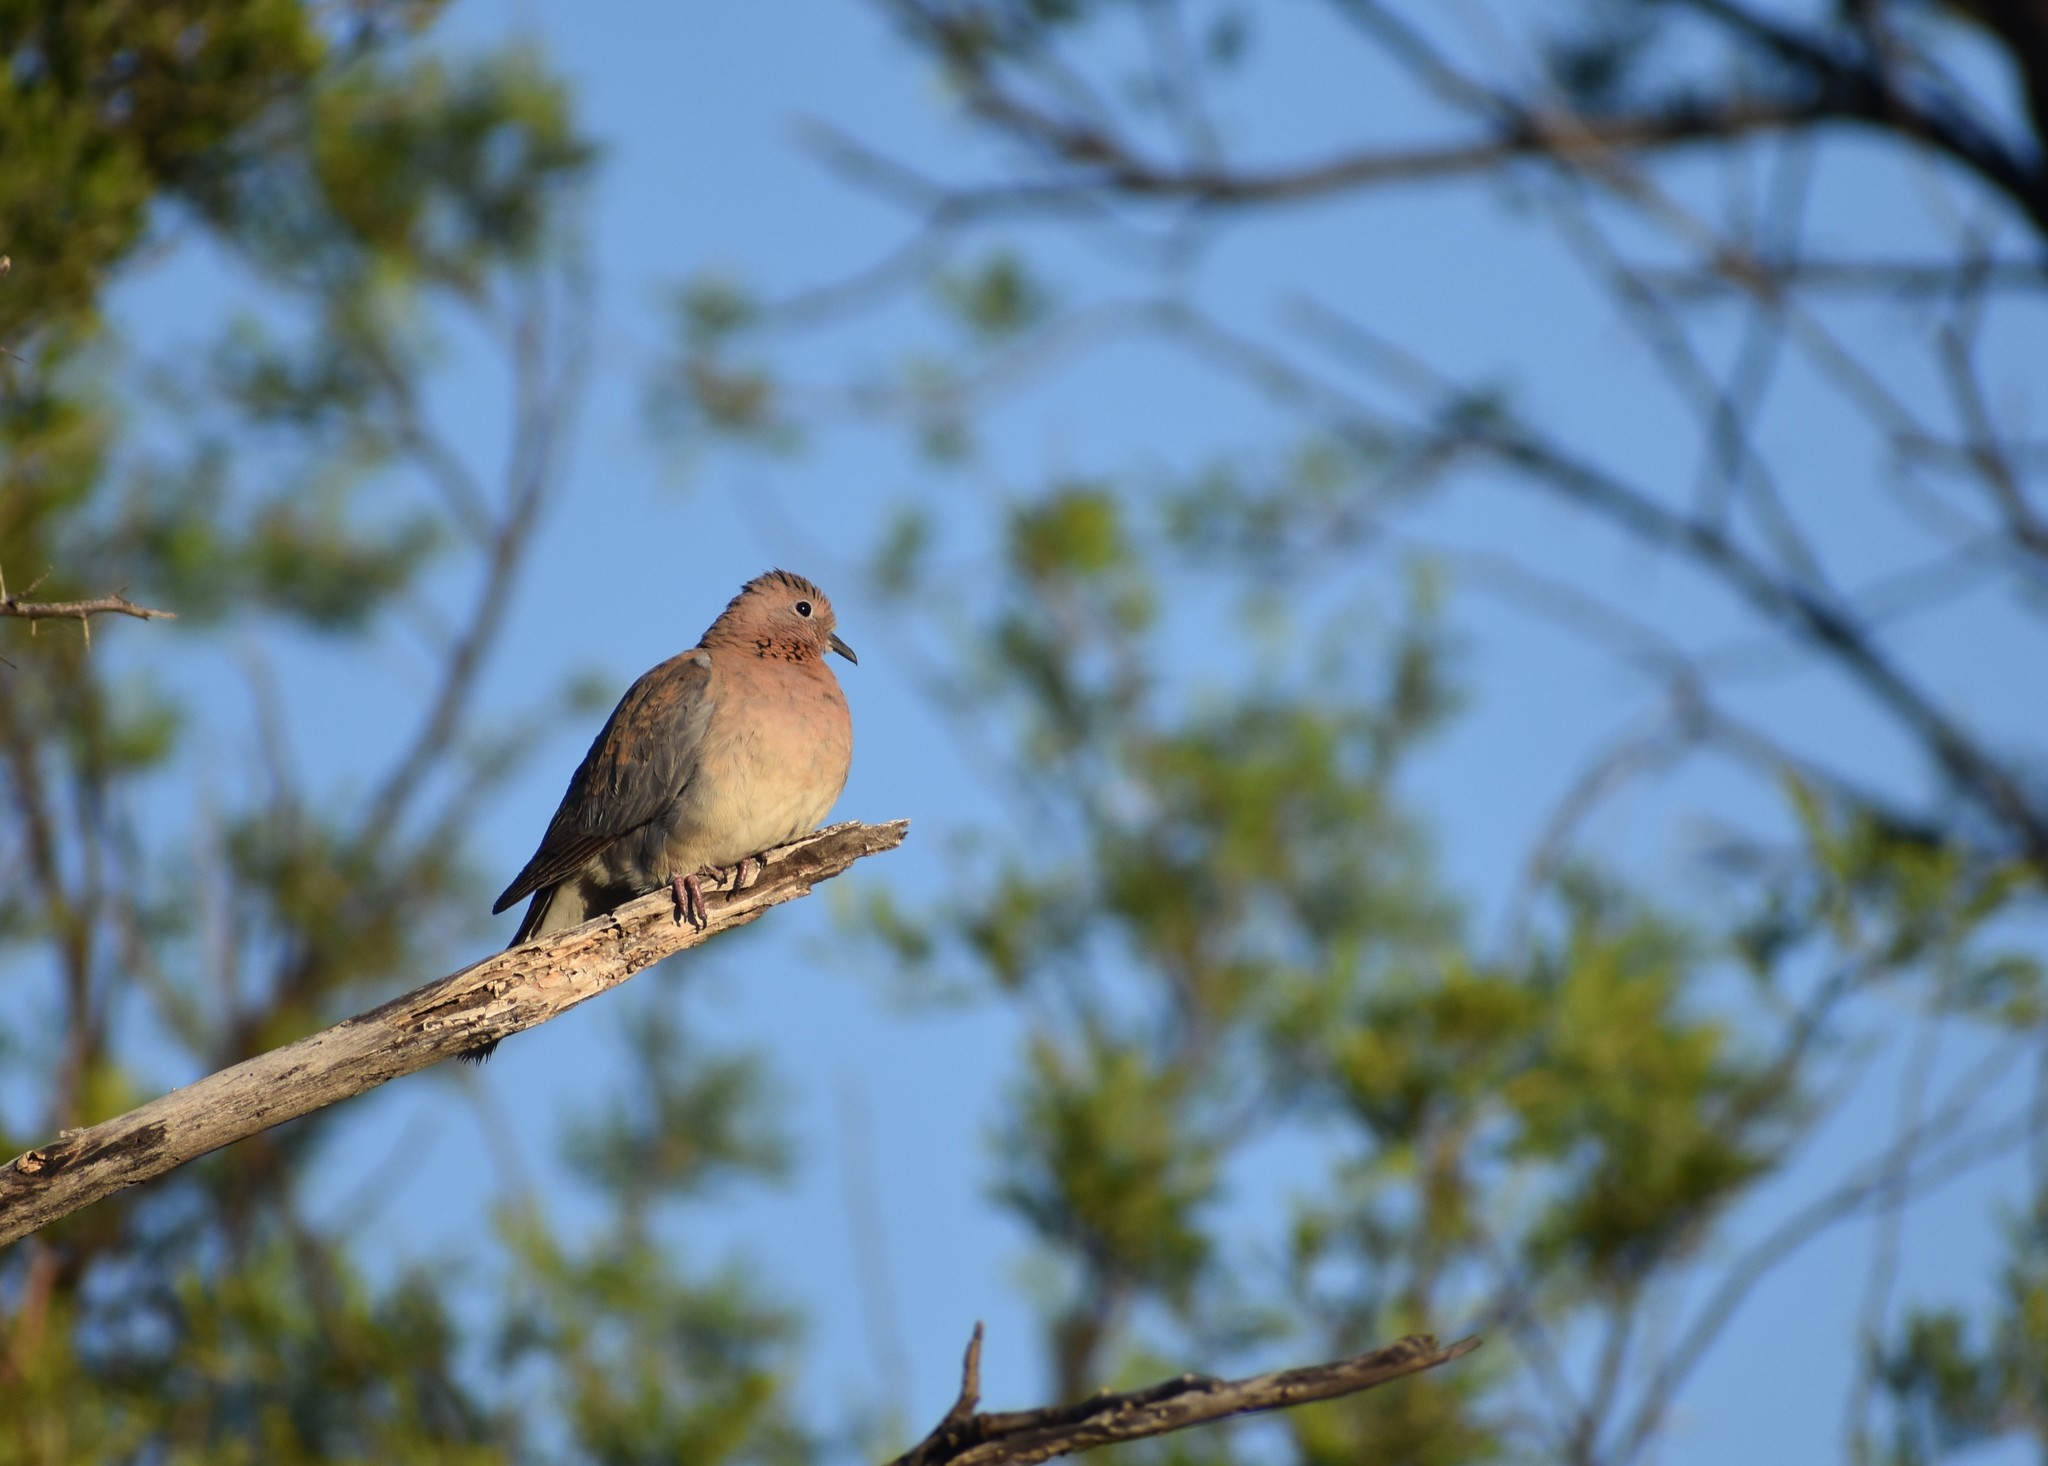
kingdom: Animalia
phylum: Chordata
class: Aves
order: Columbiformes
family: Columbidae
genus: Spilopelia
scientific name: Spilopelia senegalensis
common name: Laughing dove
